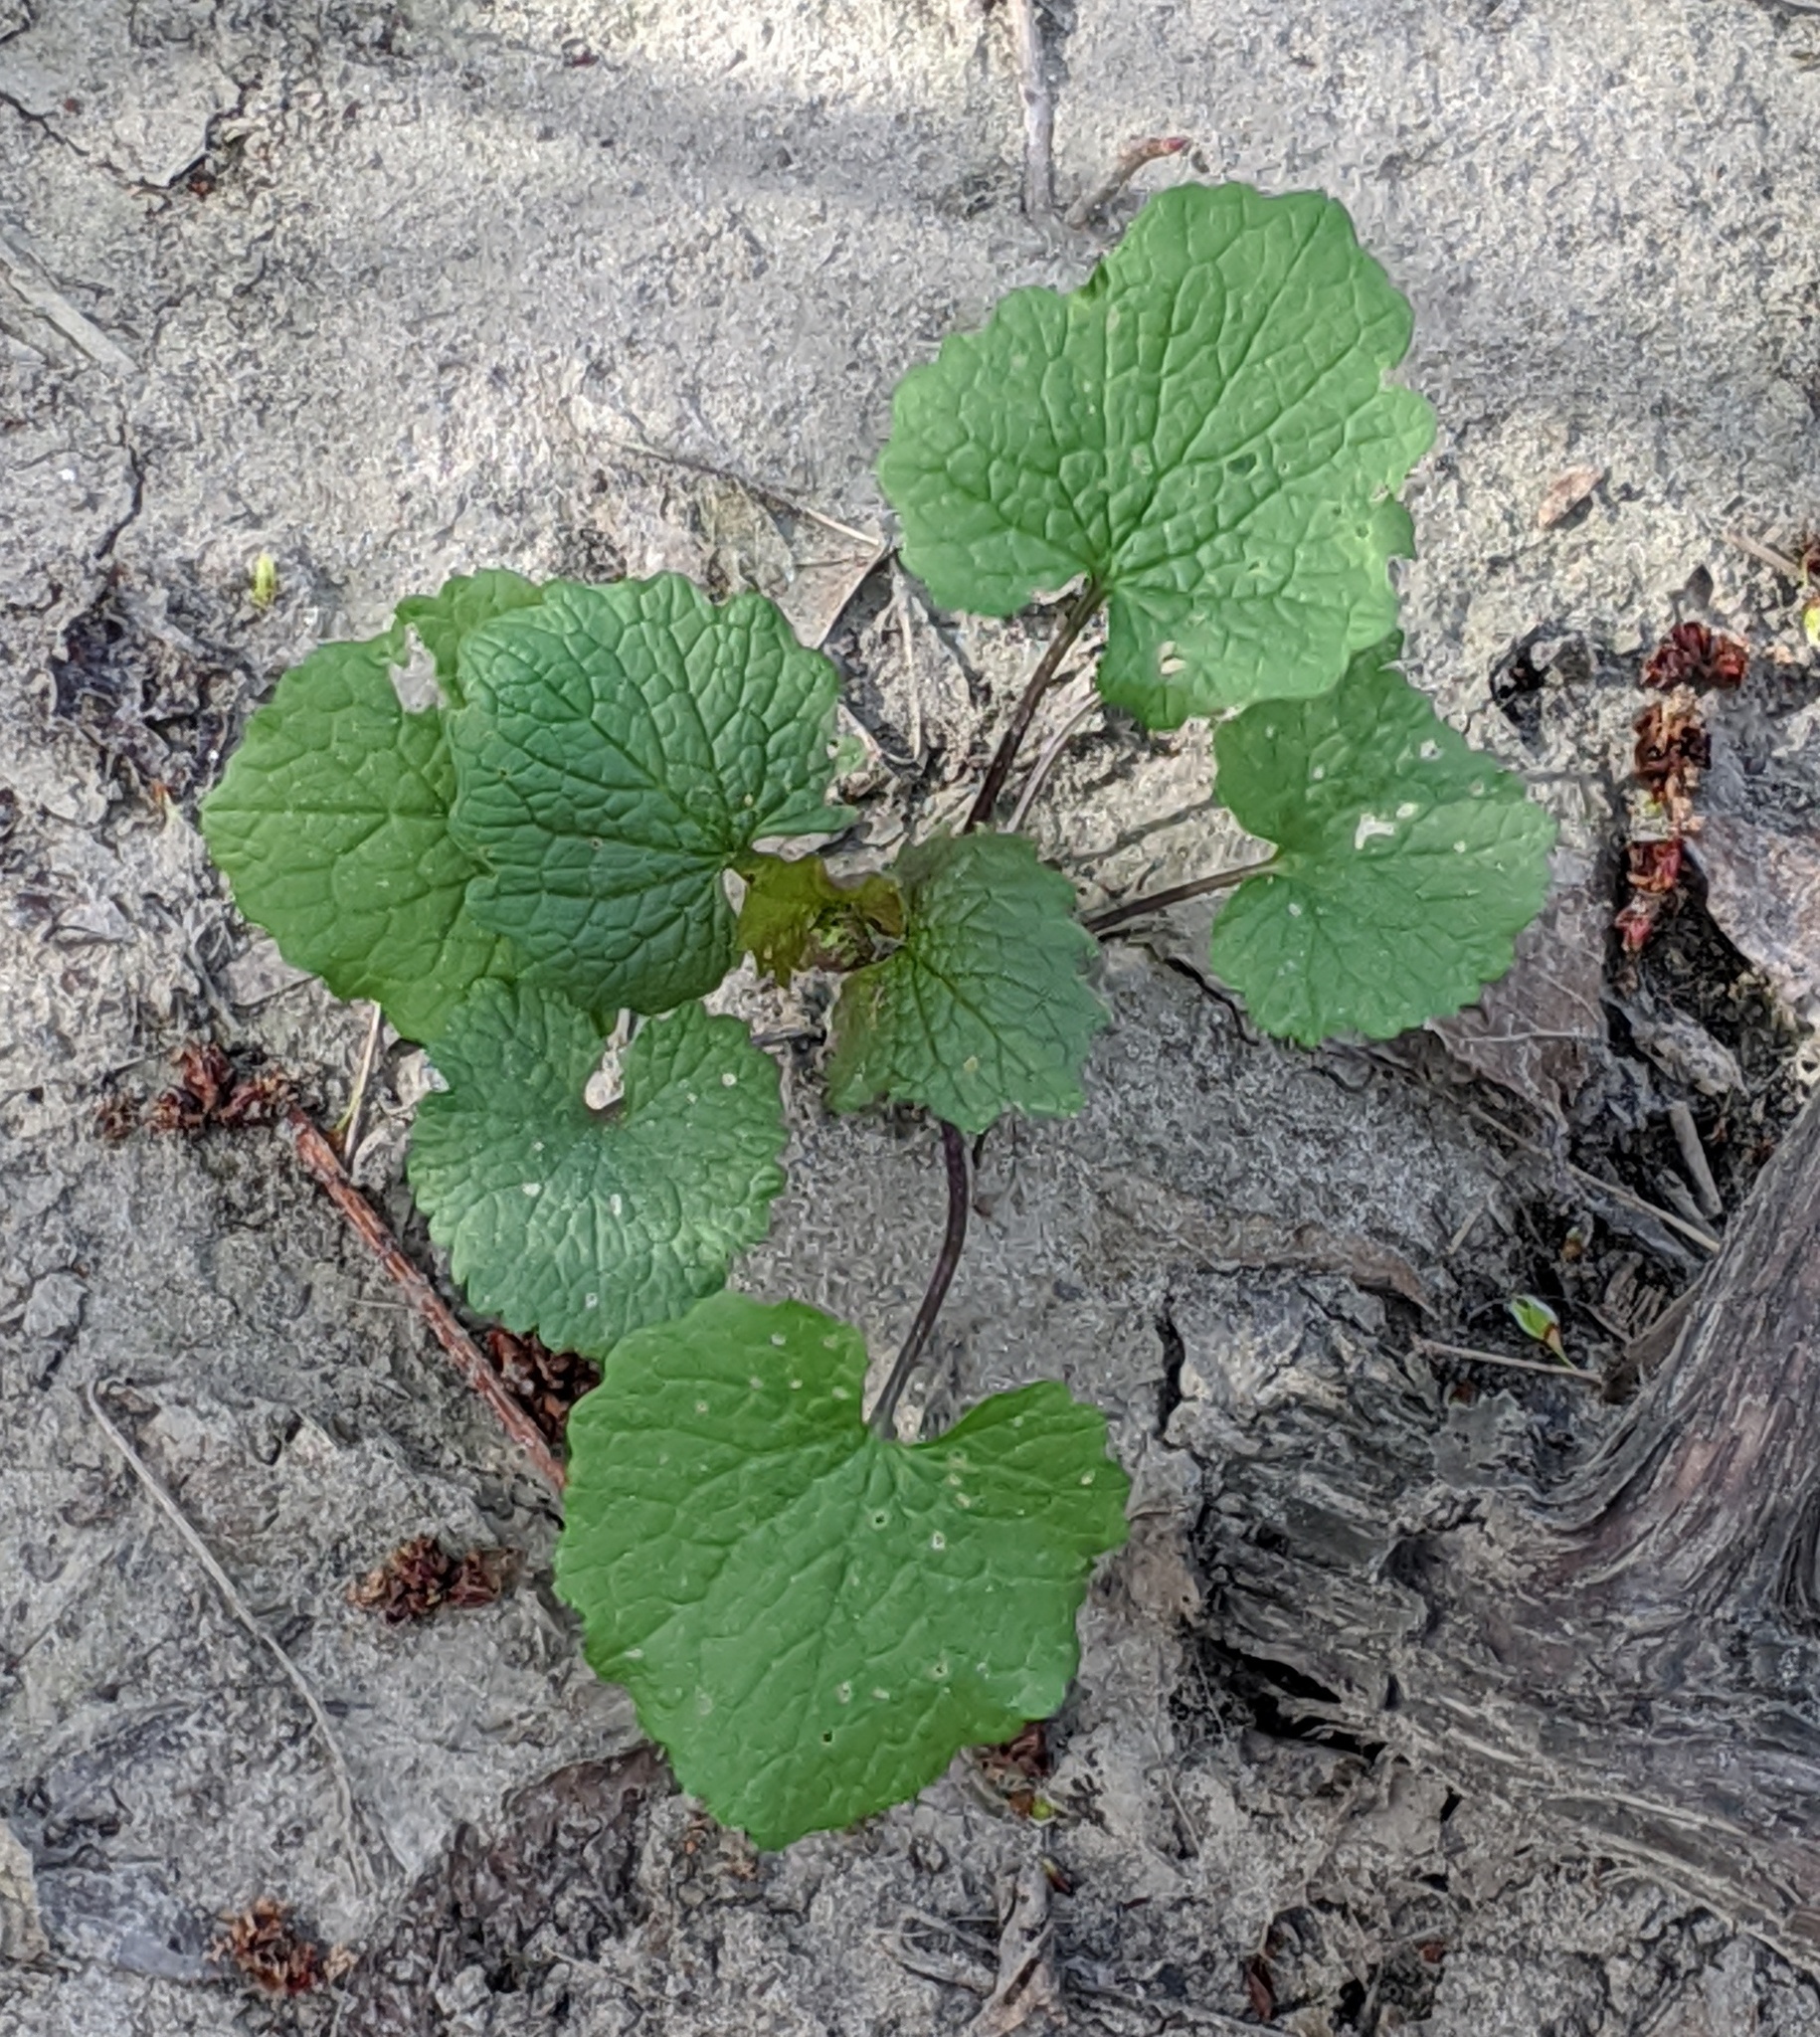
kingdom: Plantae
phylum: Tracheophyta
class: Magnoliopsida
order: Brassicales
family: Brassicaceae
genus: Alliaria
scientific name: Alliaria petiolata
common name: Garlic mustard
